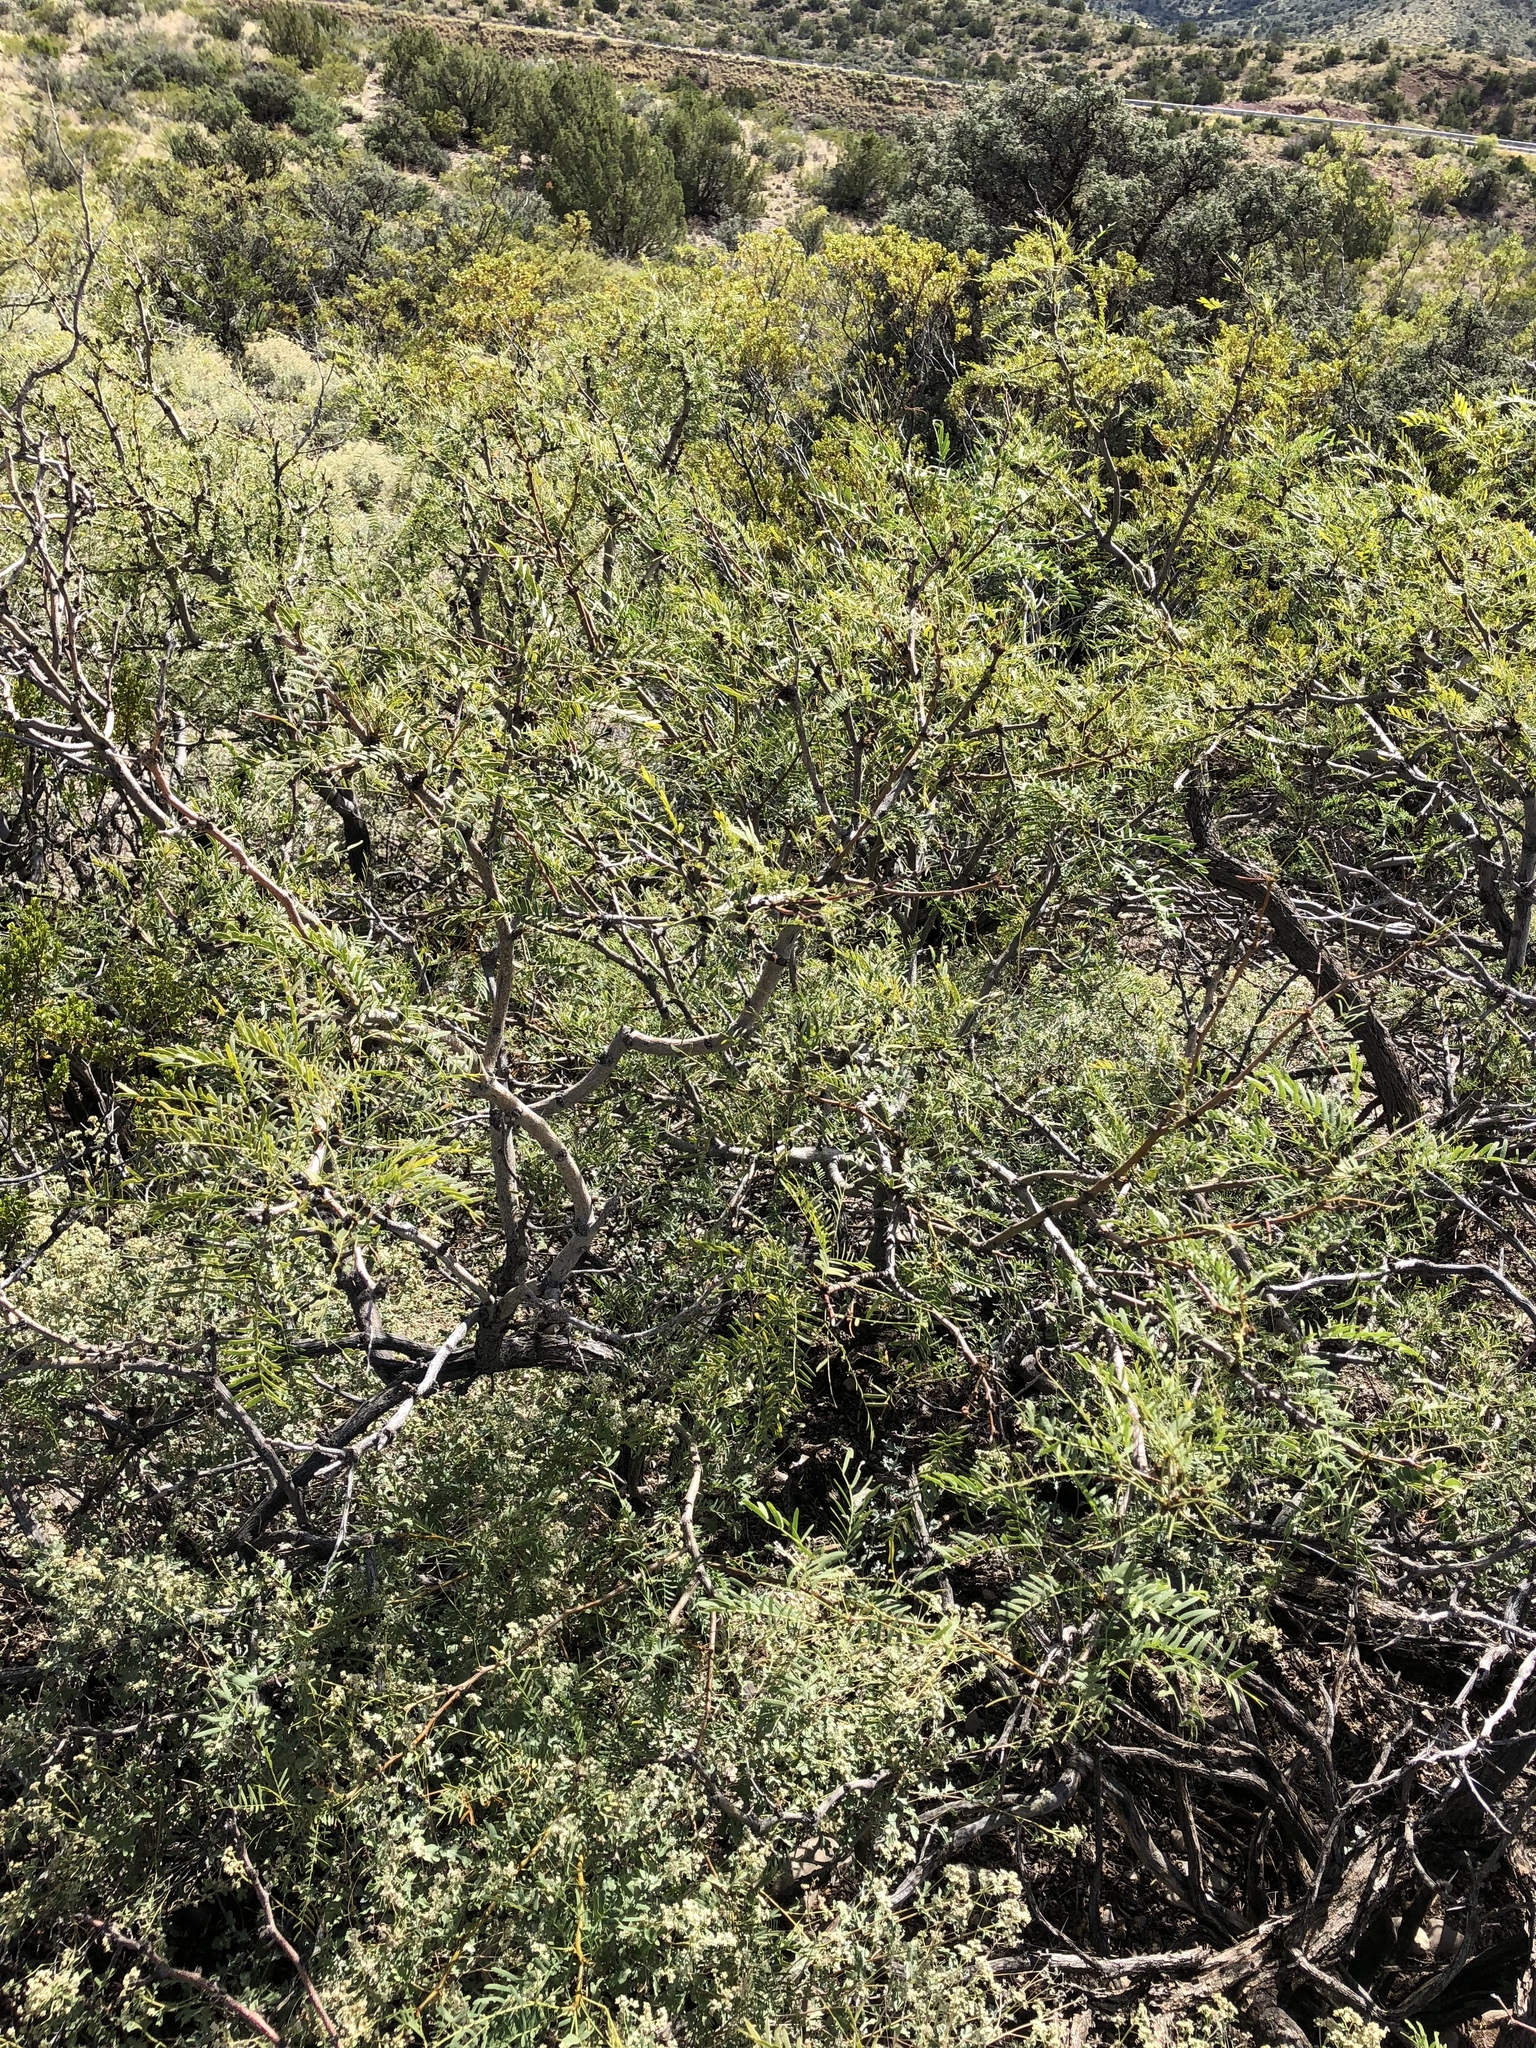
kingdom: Plantae
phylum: Tracheophyta
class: Magnoliopsida
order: Fabales
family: Fabaceae
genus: Prosopis
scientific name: Prosopis glandulosa
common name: Honey mesquite
